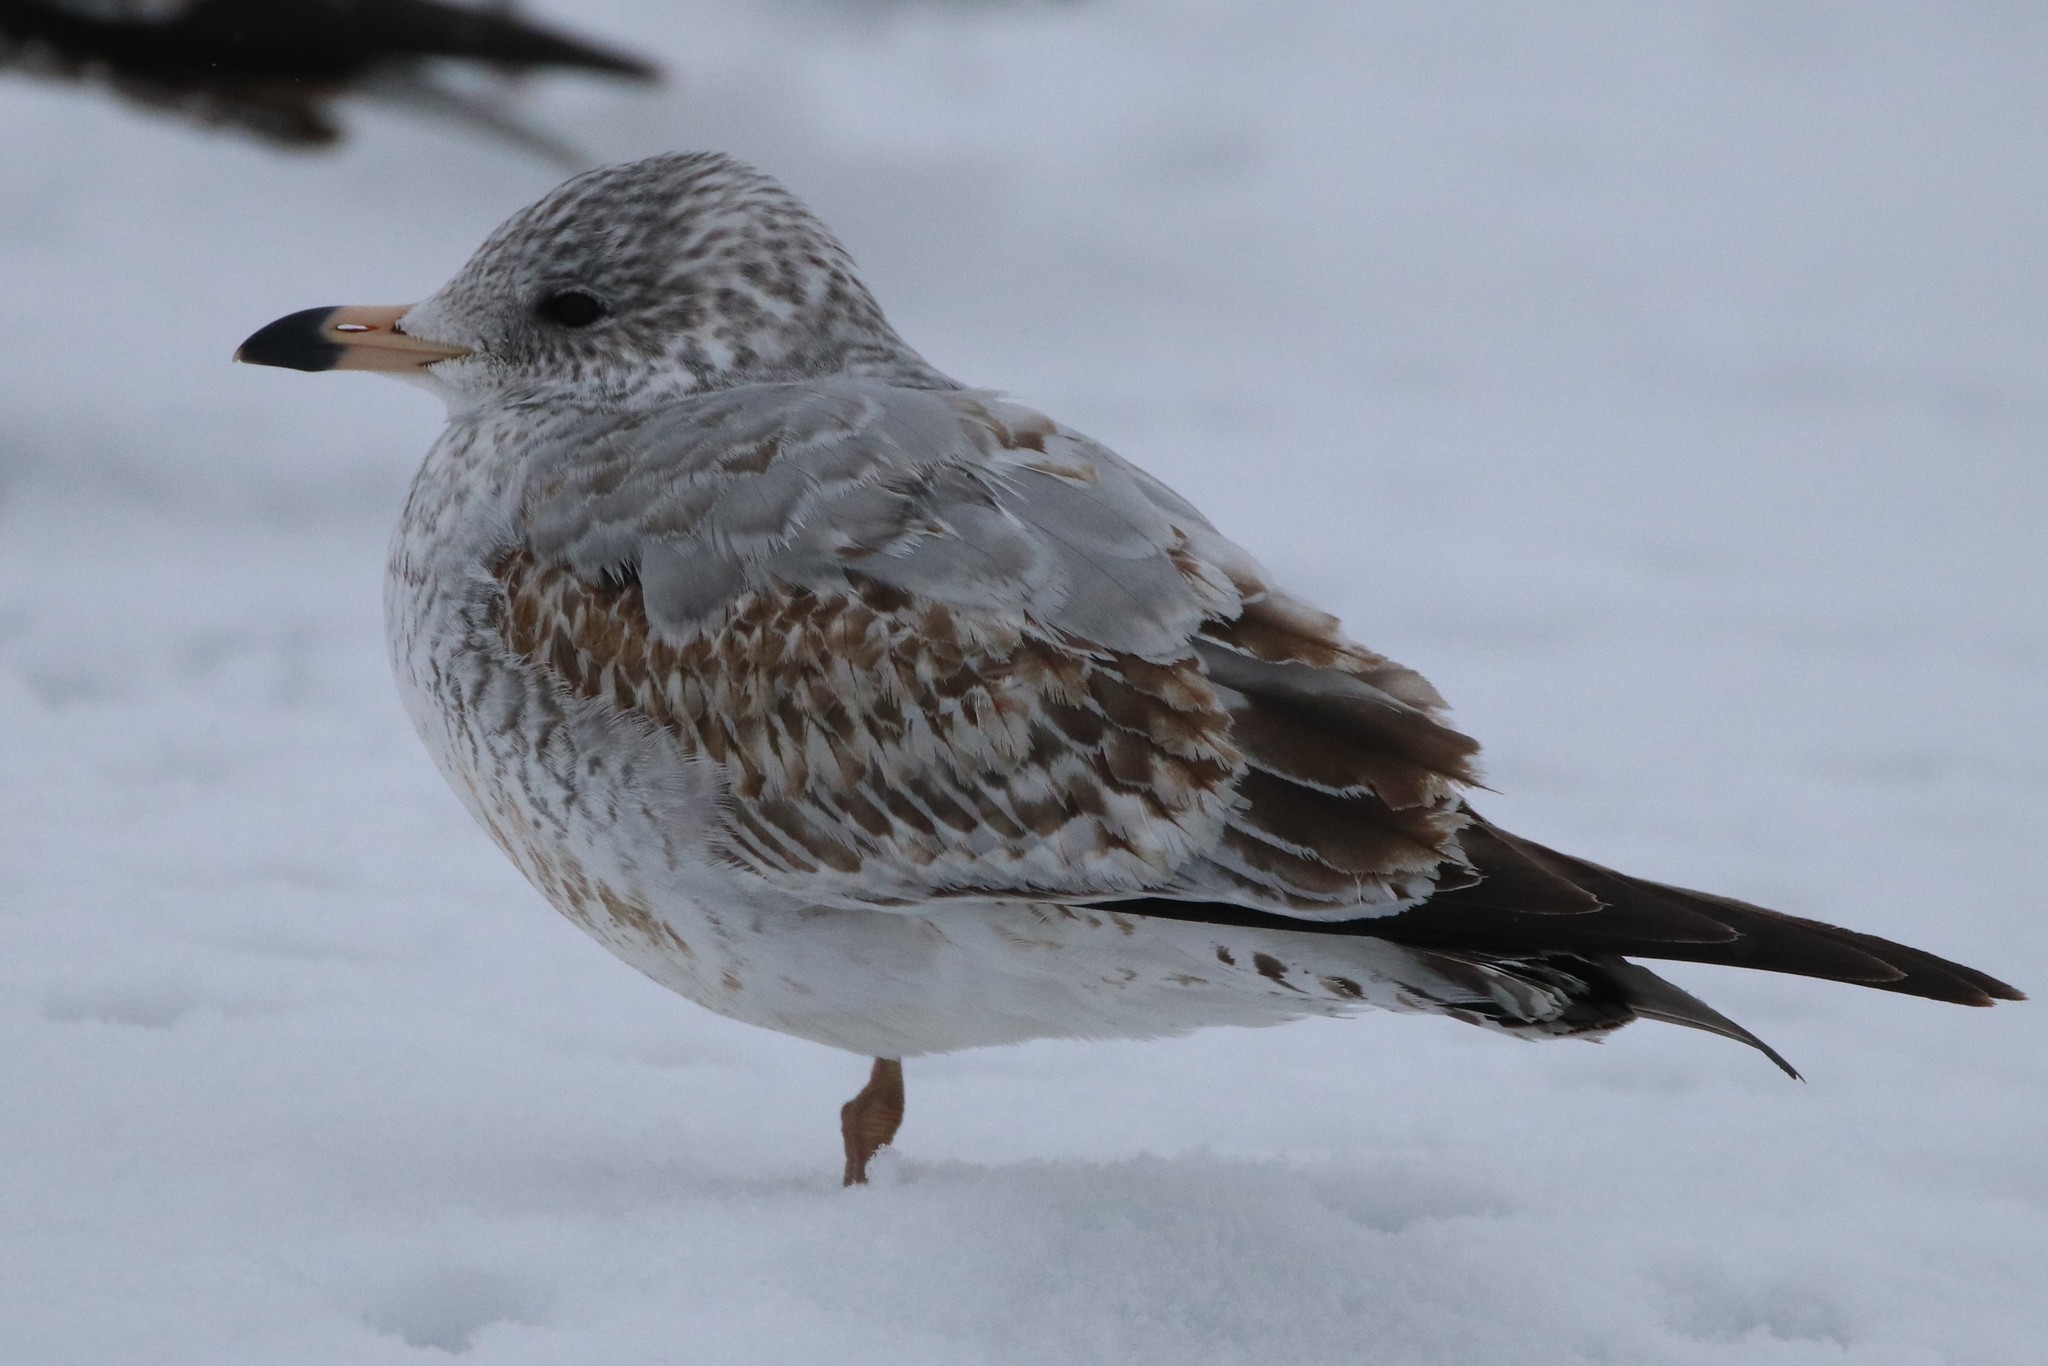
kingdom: Animalia
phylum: Chordata
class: Aves
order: Charadriiformes
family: Laridae
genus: Larus
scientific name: Larus delawarensis
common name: Ring-billed gull
